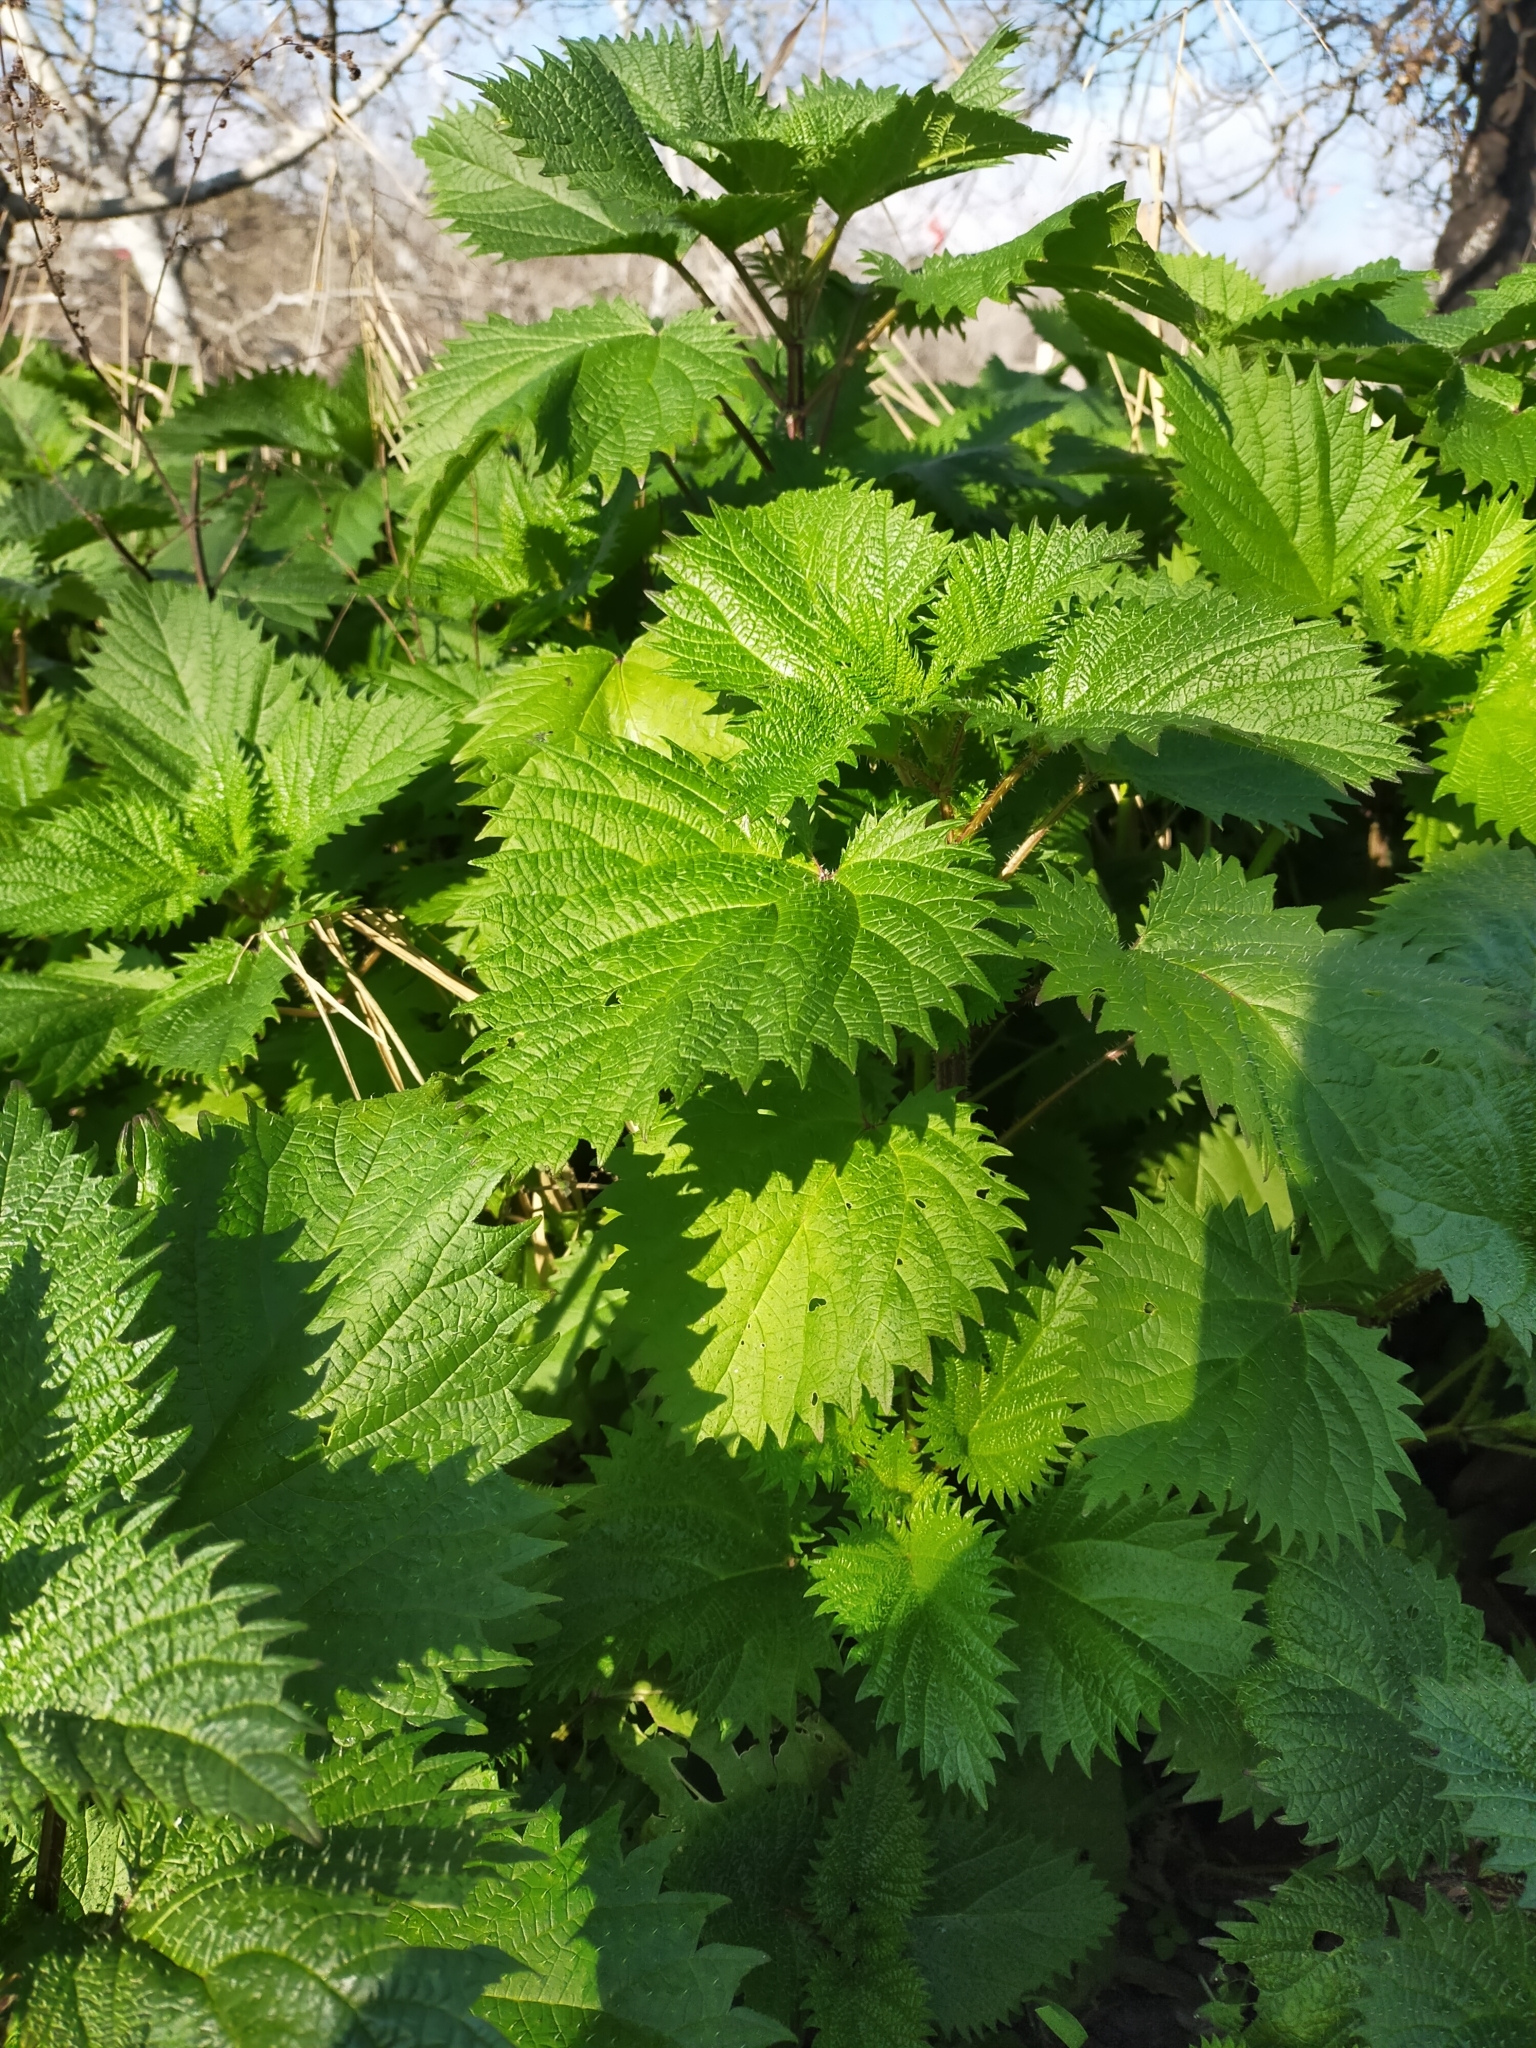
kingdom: Plantae
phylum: Tracheophyta
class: Magnoliopsida
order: Rosales
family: Urticaceae
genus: Urtica
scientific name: Urtica pilulifera
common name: Roman nettle
